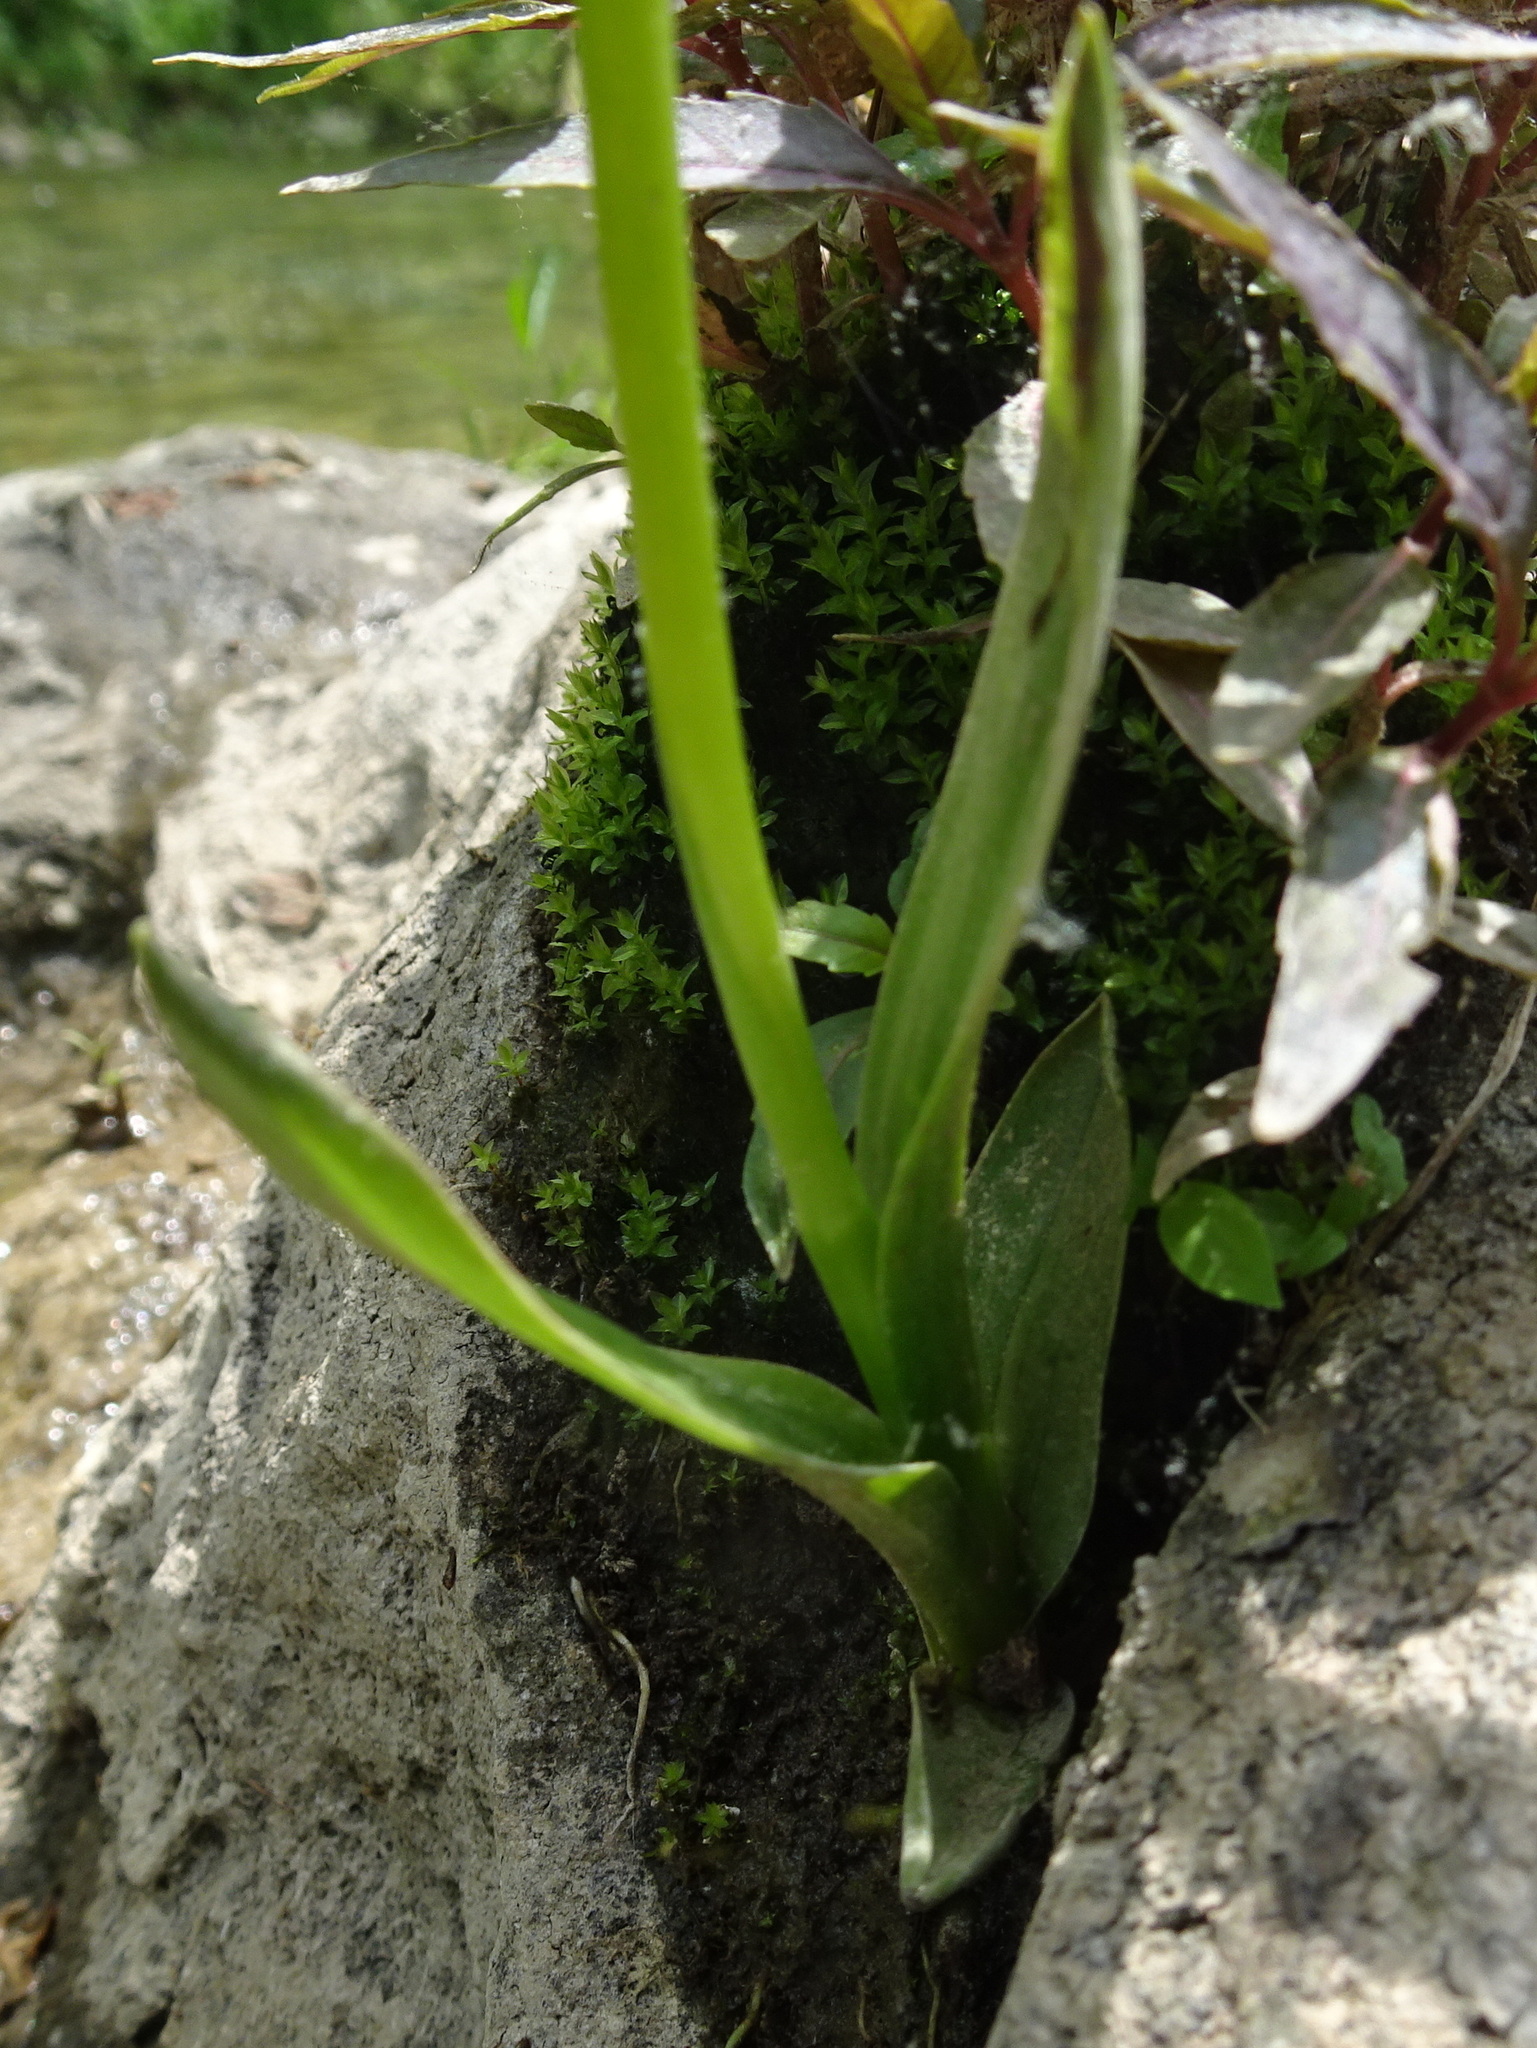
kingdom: Plantae
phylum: Tracheophyta
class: Liliopsida
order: Asparagales
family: Orchidaceae
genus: Spiranthes
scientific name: Spiranthes lucida
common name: Broad-leaved ladies'-tresses
